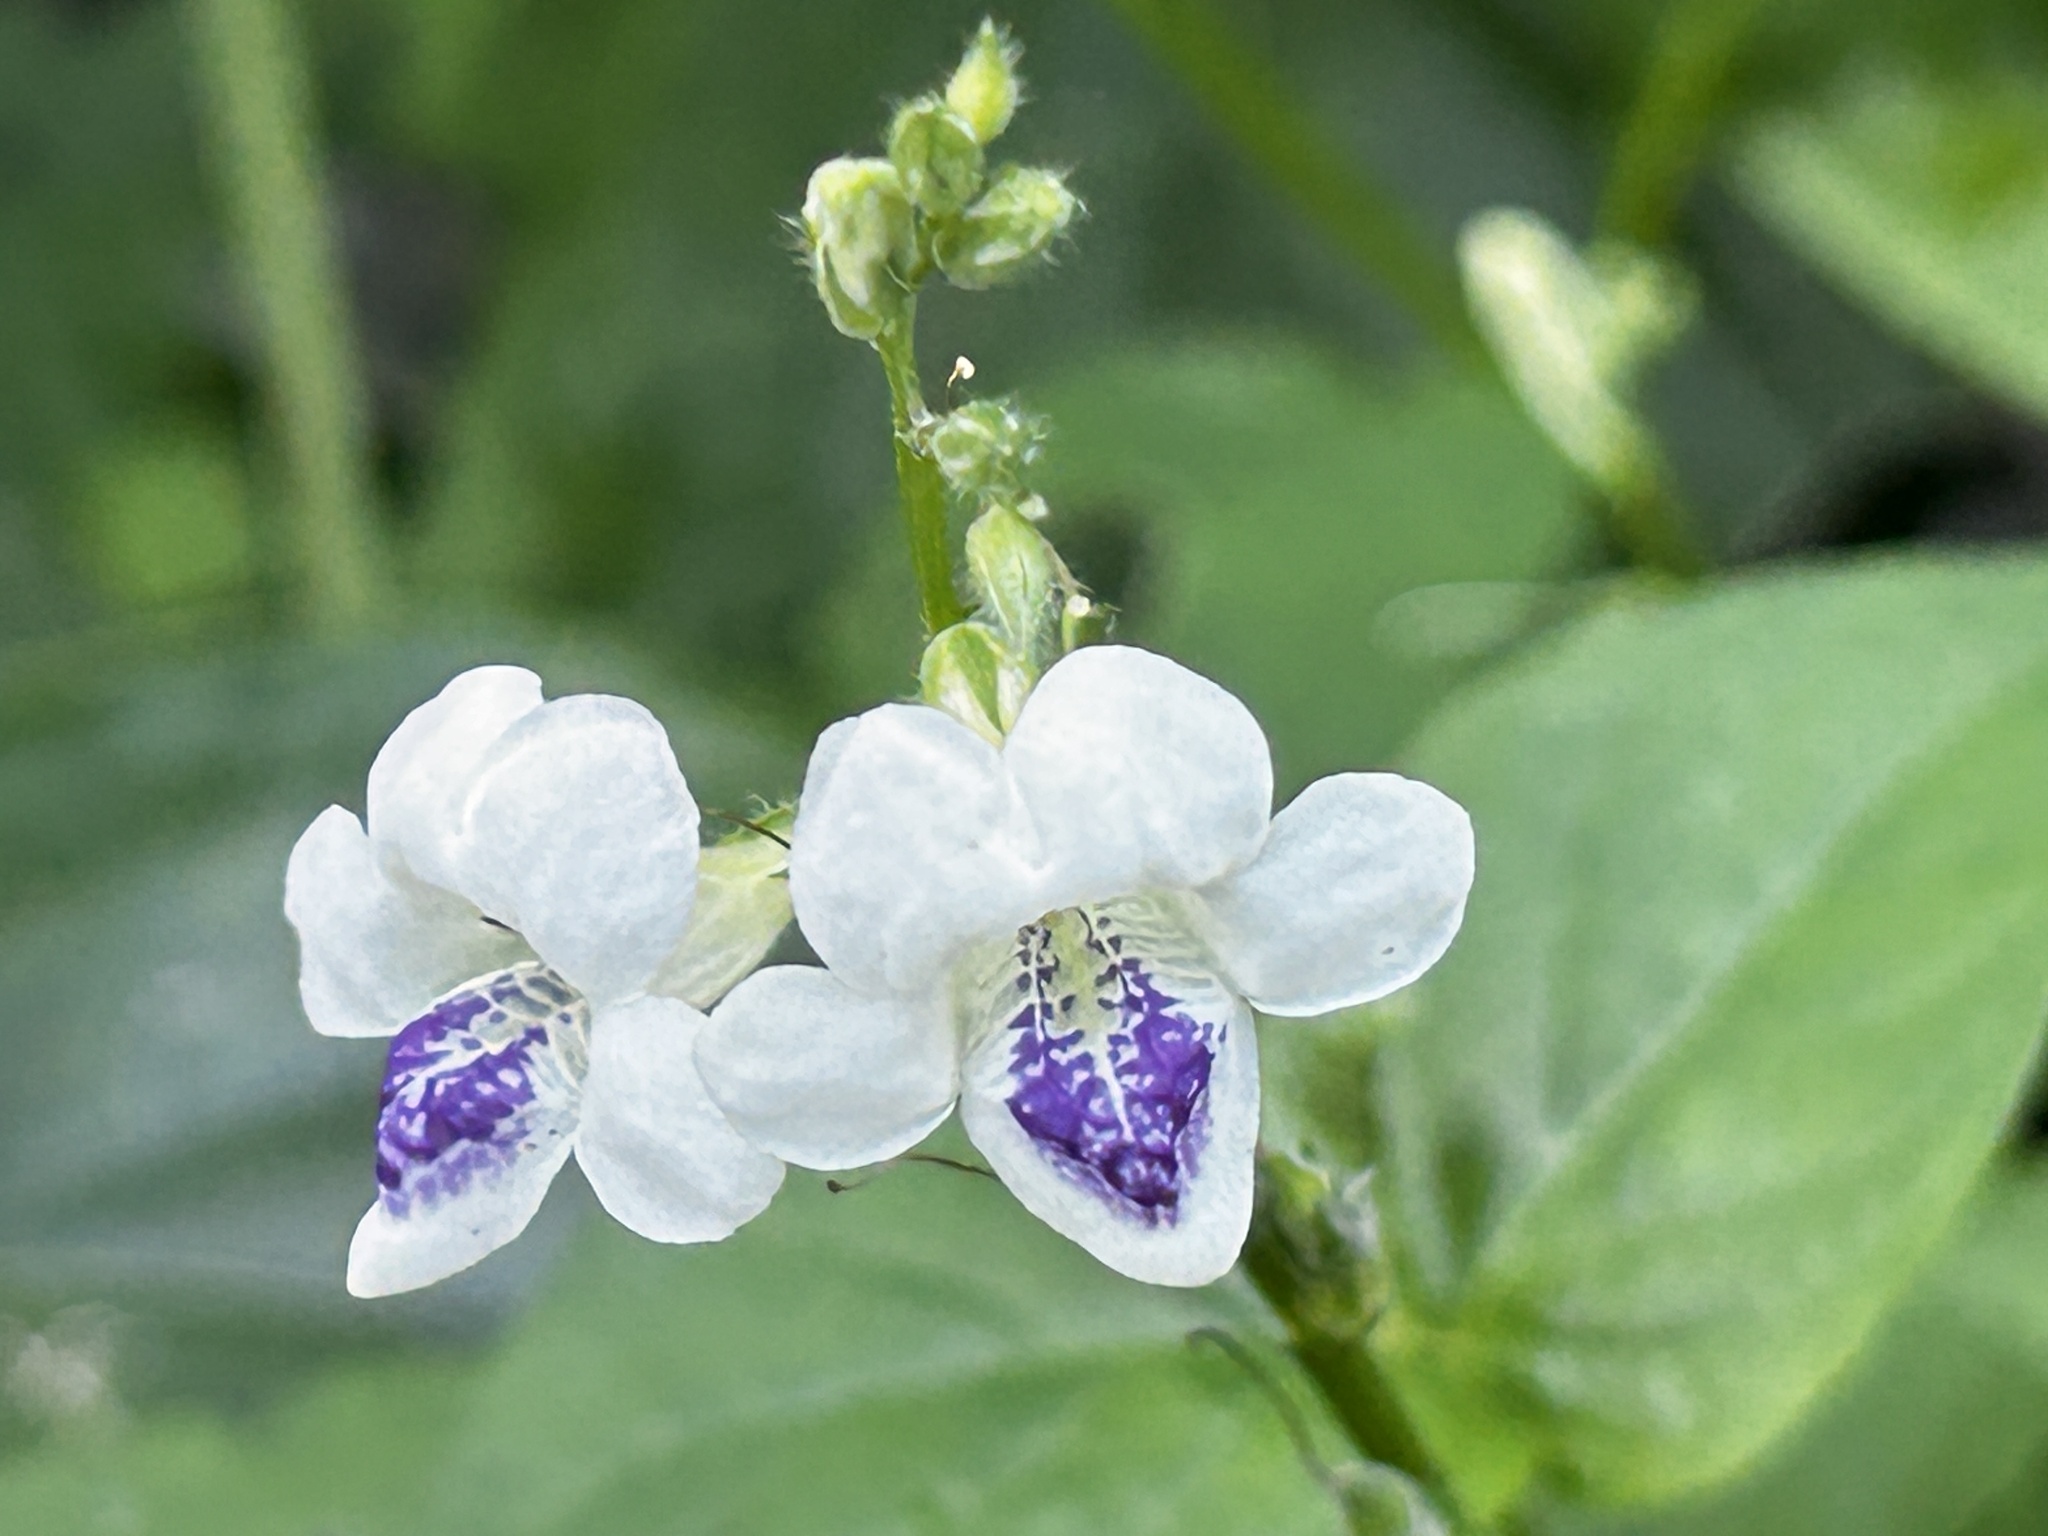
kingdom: Plantae
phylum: Tracheophyta
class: Magnoliopsida
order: Lamiales
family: Acanthaceae
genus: Asystasia
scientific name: Asystasia intrusa
